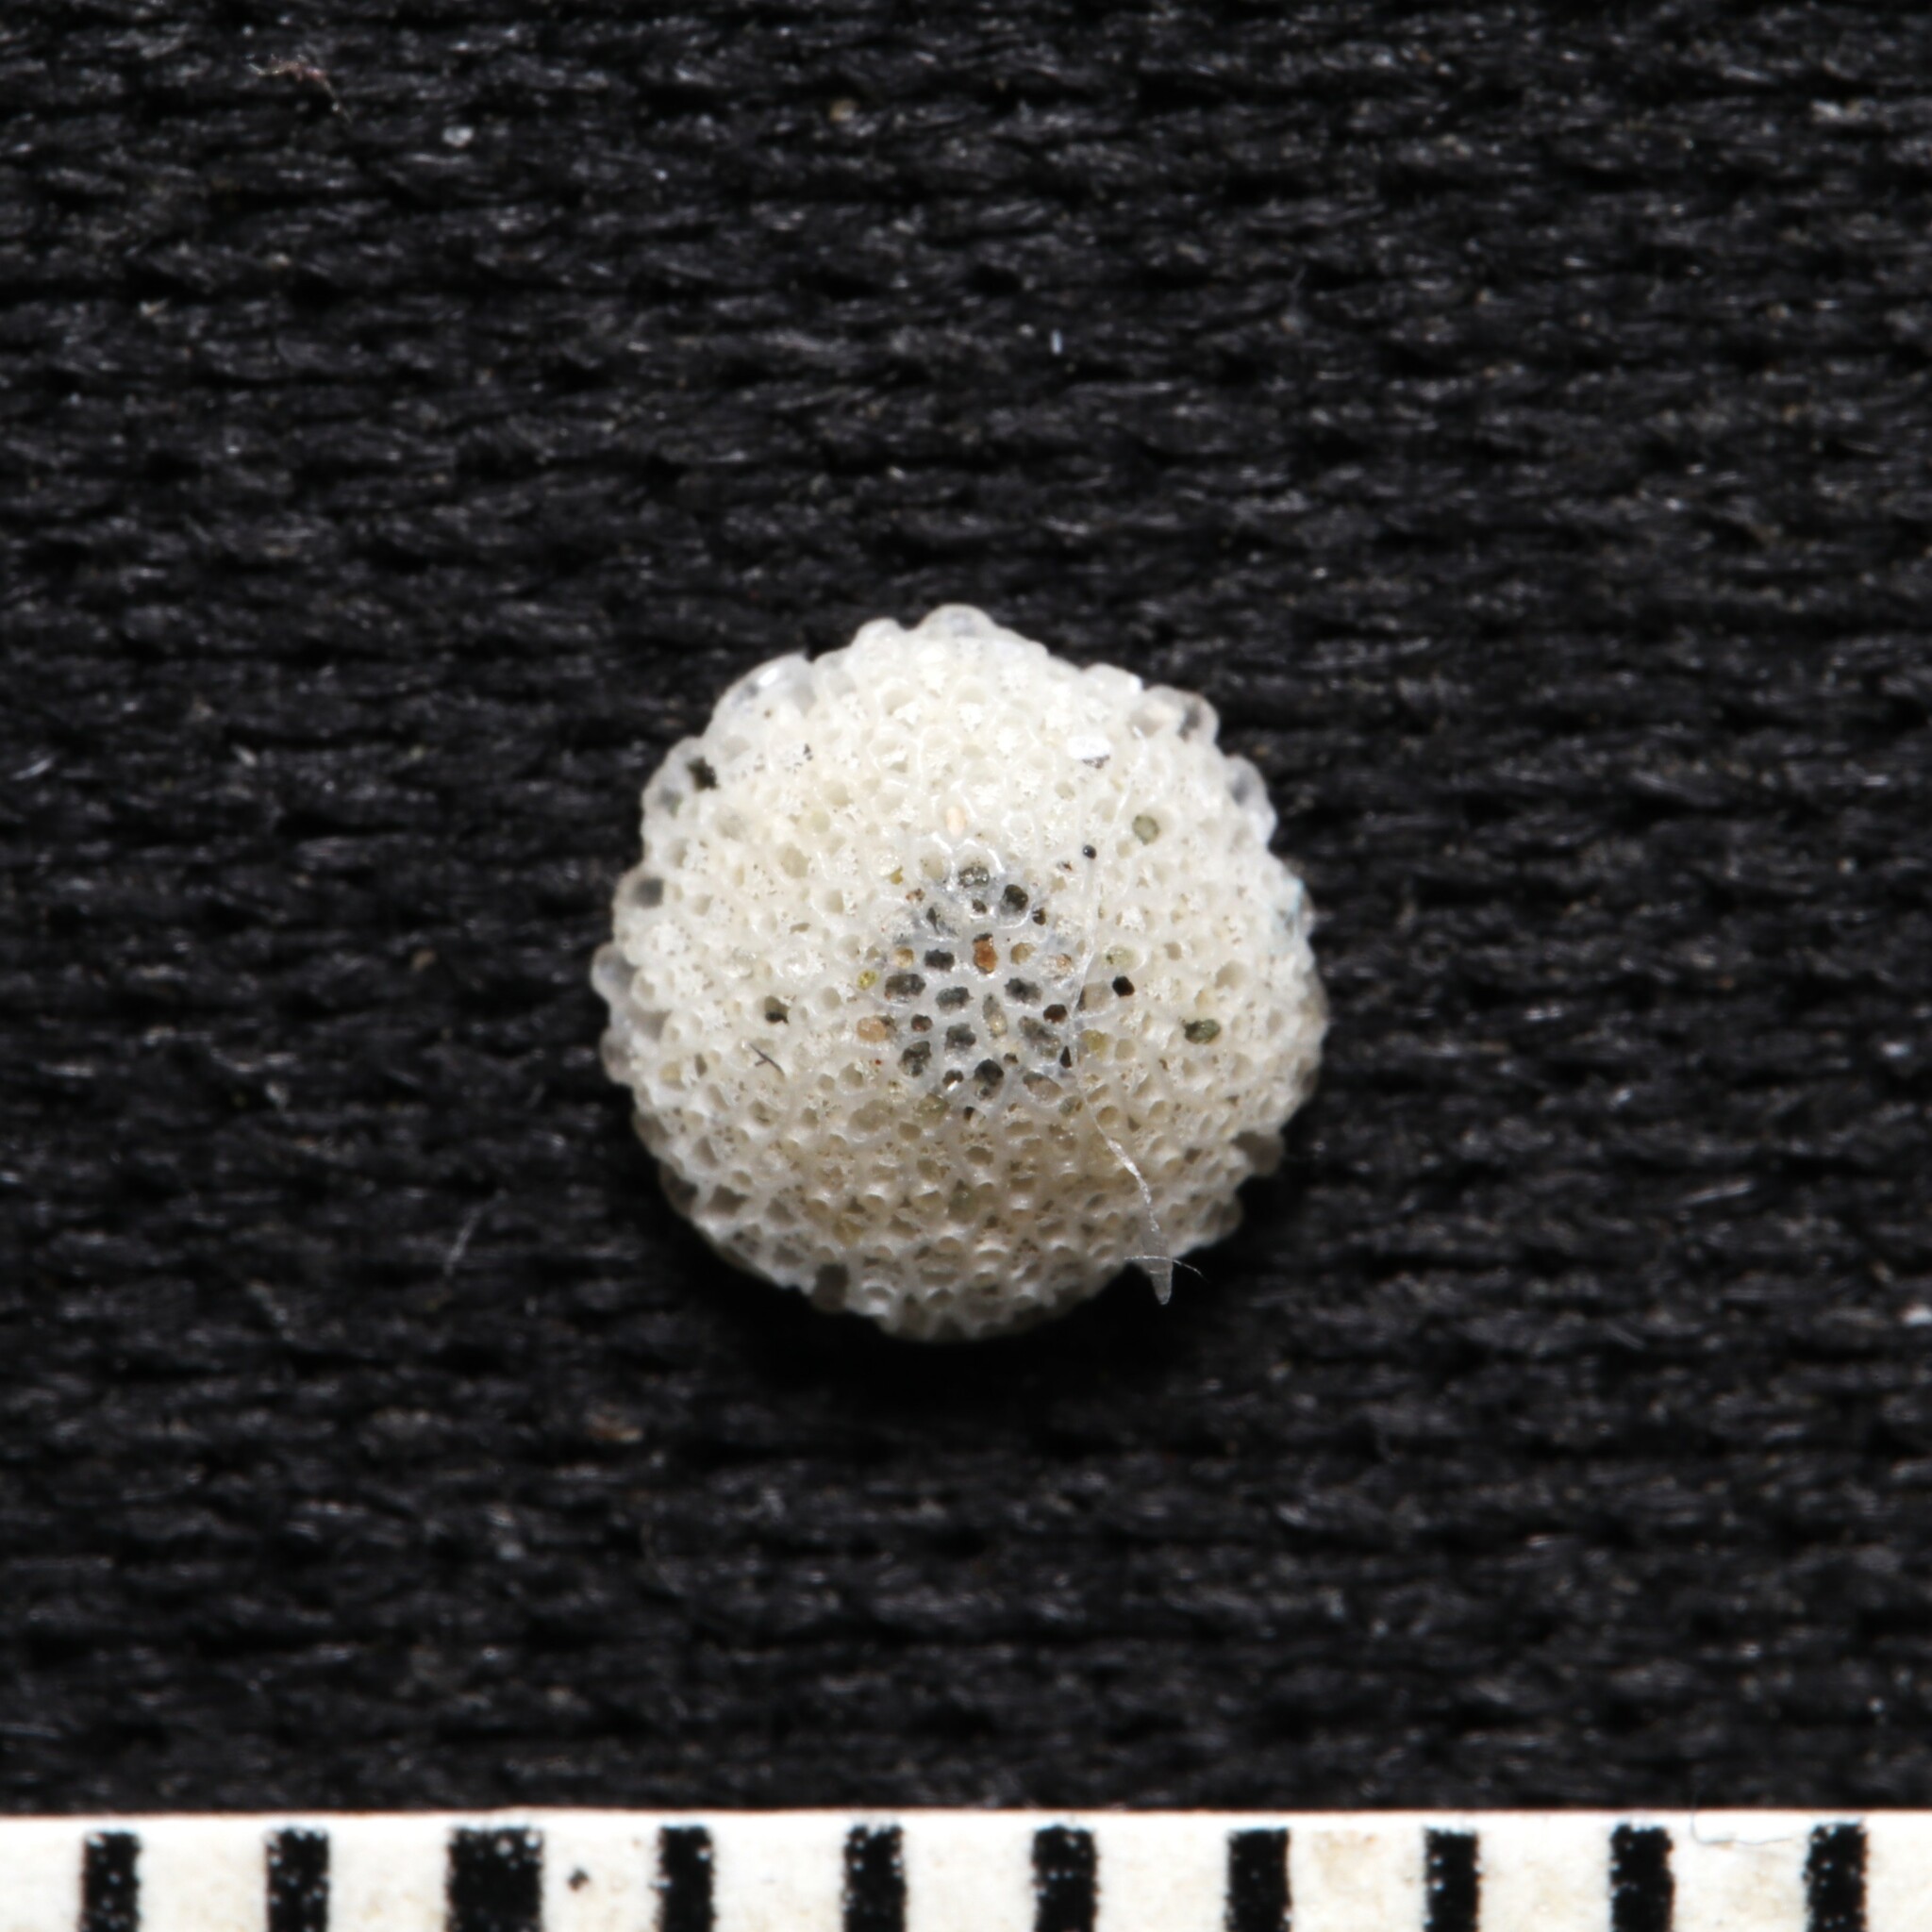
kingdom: Animalia
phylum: Bryozoa
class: Gymnolaemata
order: Cheilostomatida
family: Cupuladriidae
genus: Discoporella
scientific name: Discoporella umbellata
